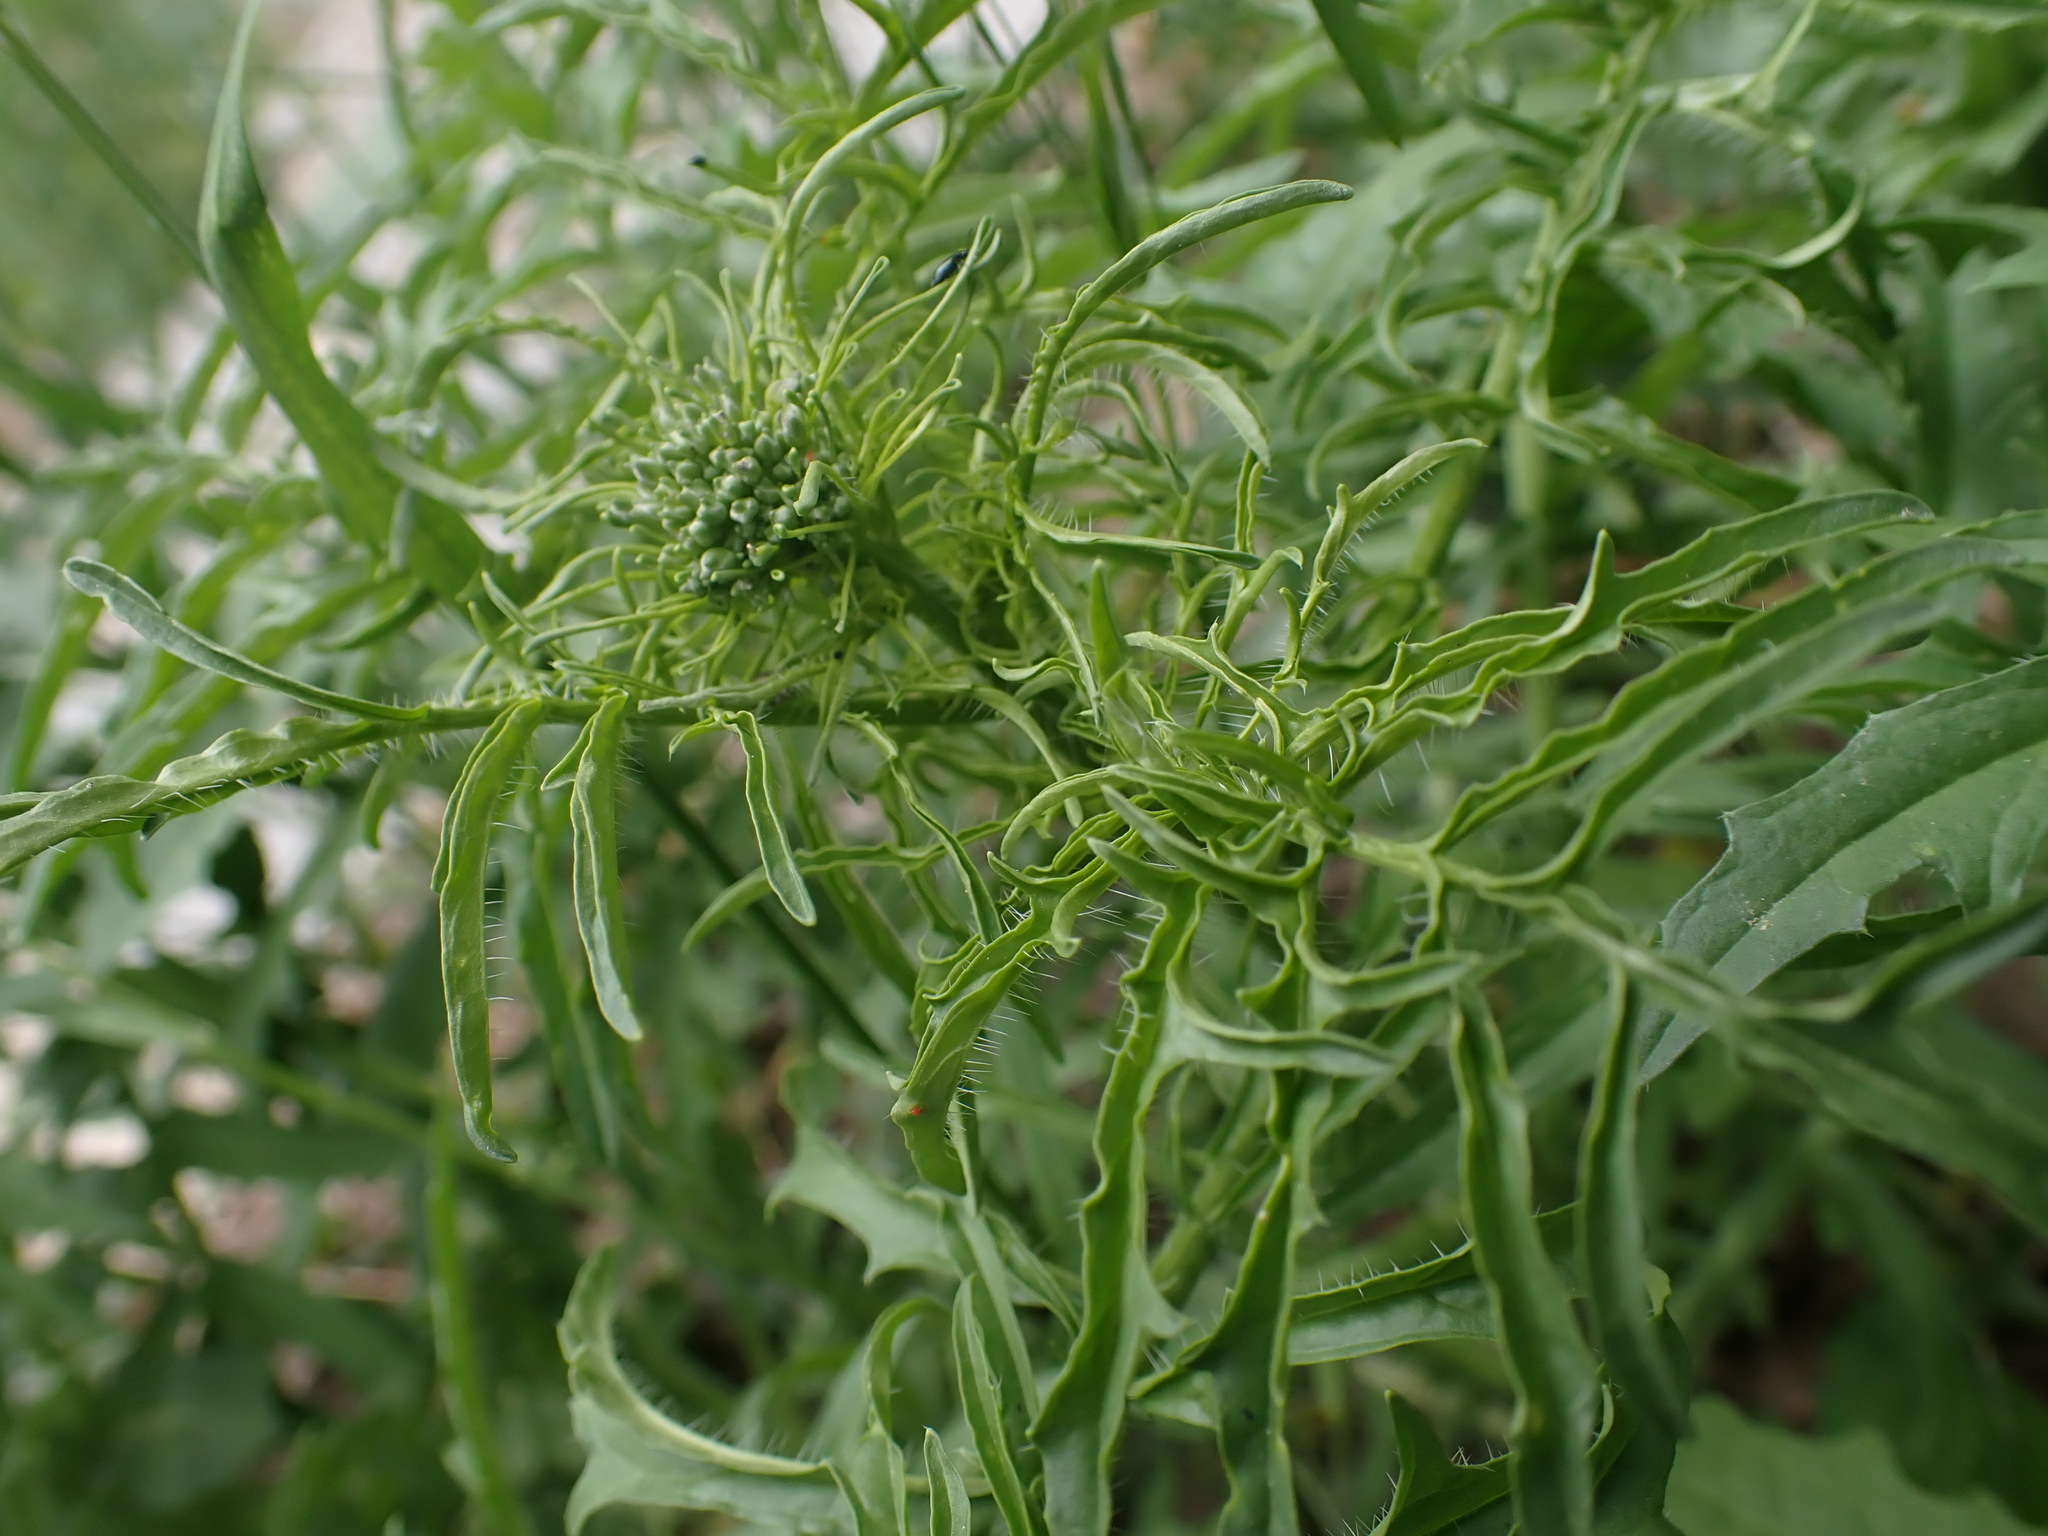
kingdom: Plantae
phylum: Tracheophyta
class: Magnoliopsida
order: Brassicales
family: Brassicaceae
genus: Sisymbrium
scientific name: Sisymbrium altissimum
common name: Tall rocket
